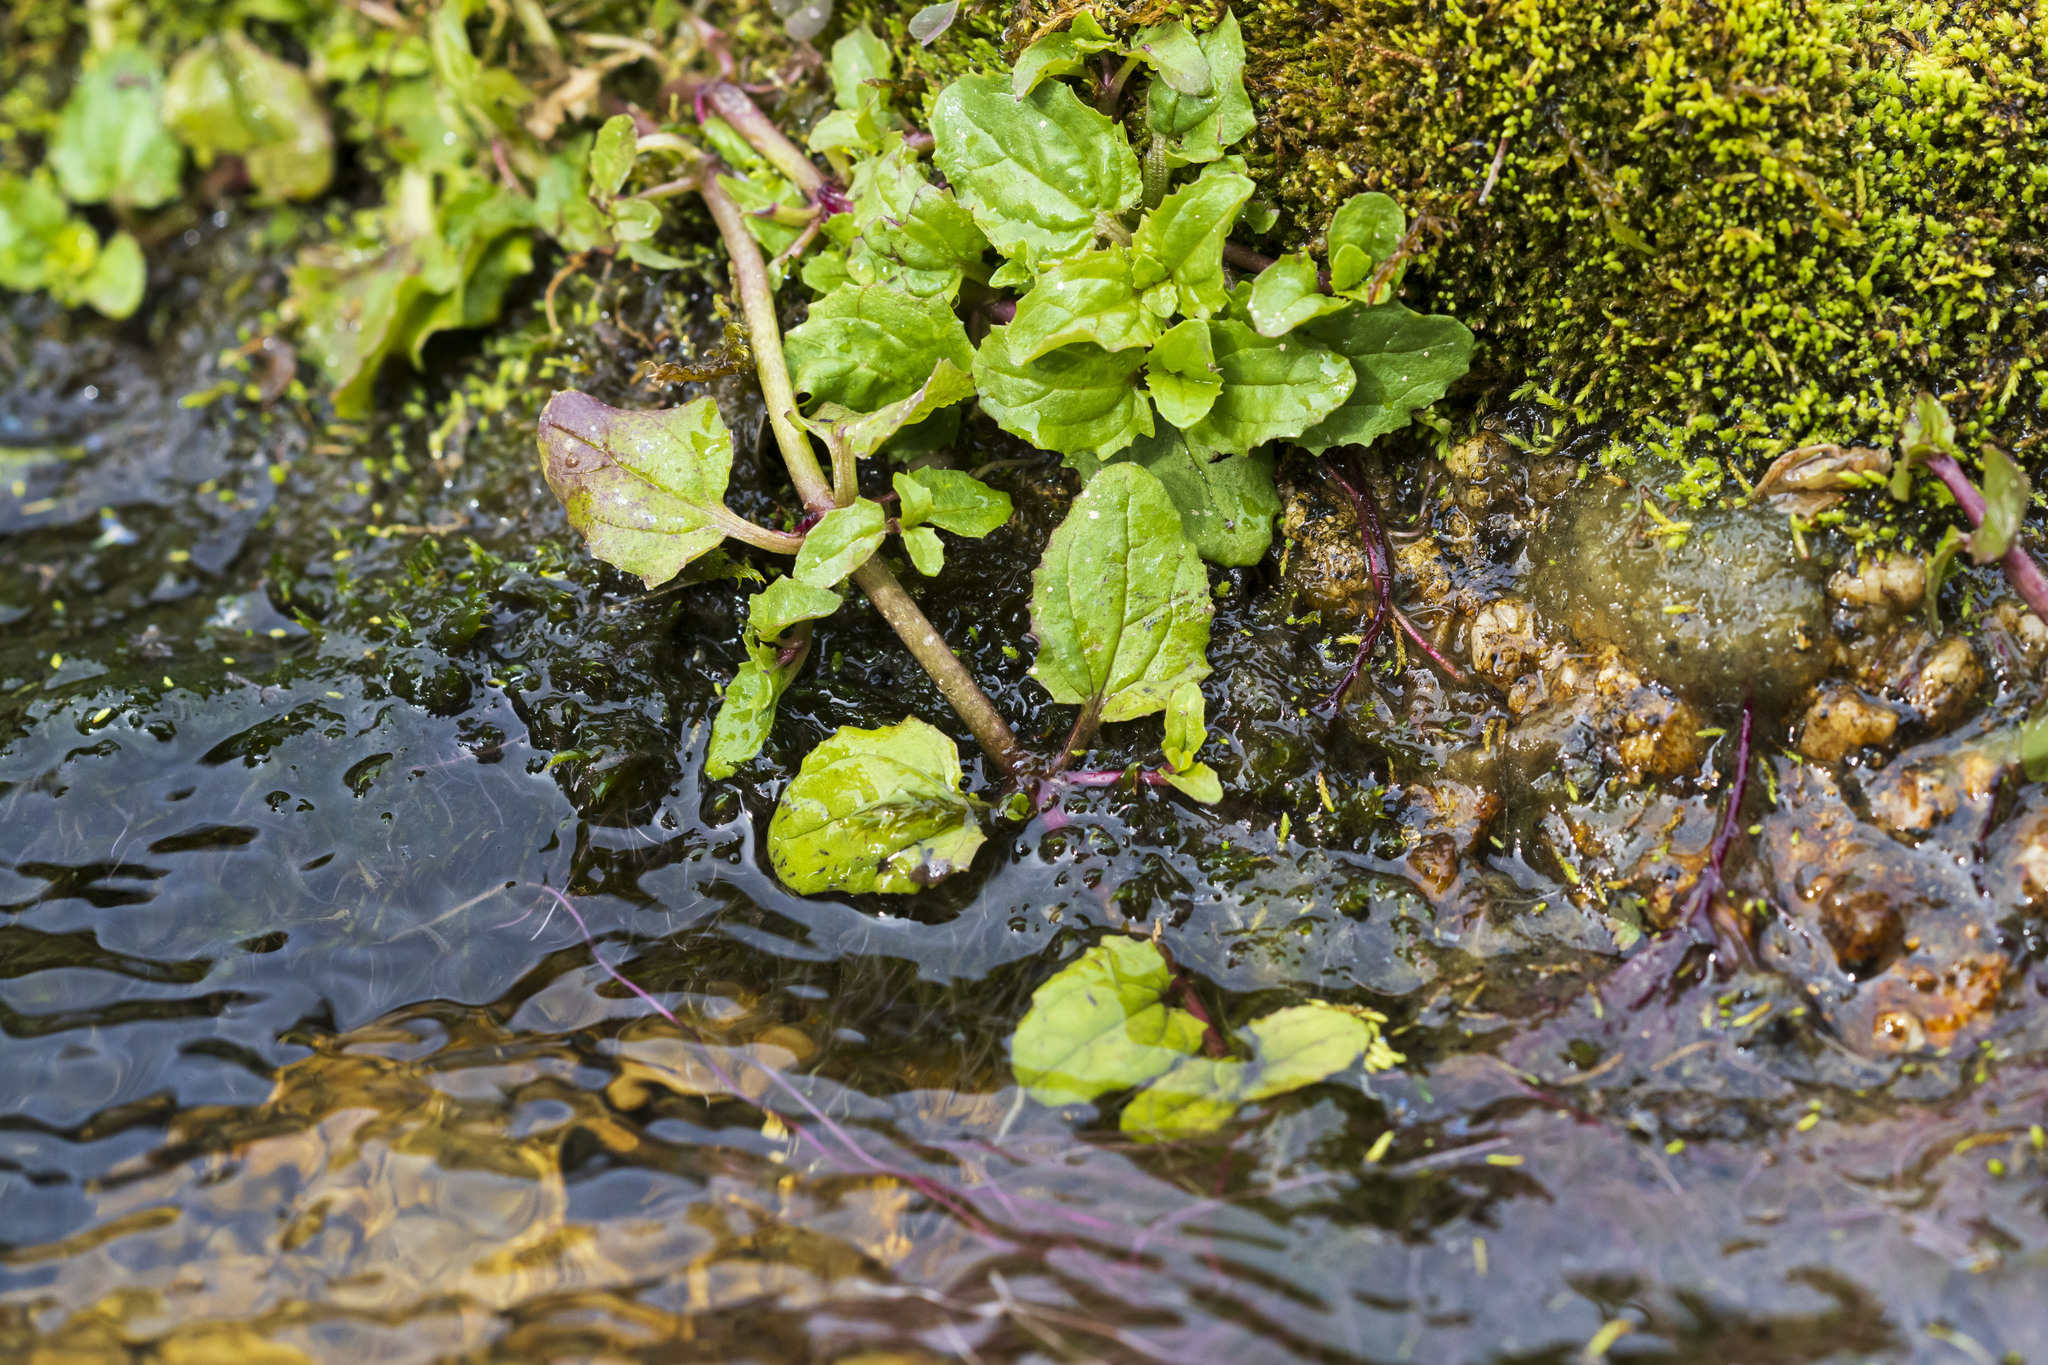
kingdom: Plantae
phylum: Tracheophyta
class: Magnoliopsida
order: Lamiales
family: Phrymaceae
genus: Erythranthe
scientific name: Erythranthe lagunensis
